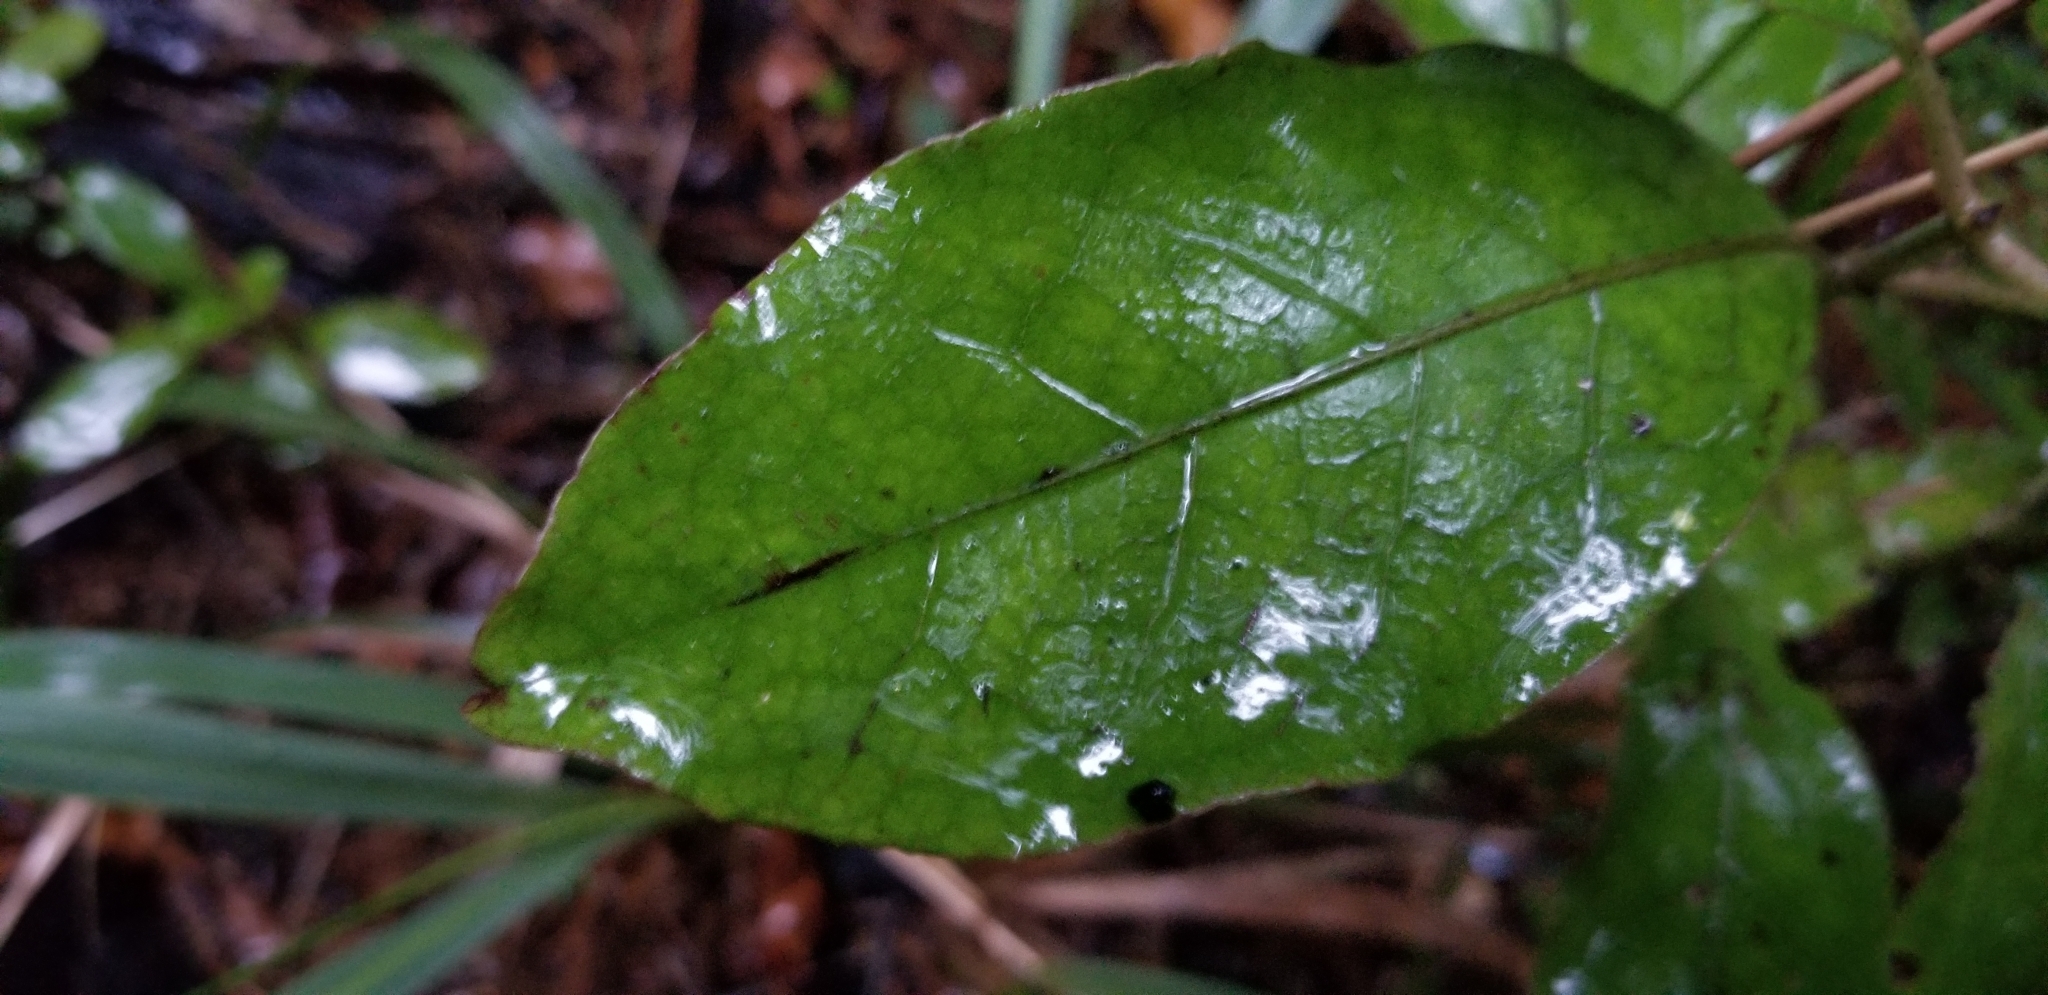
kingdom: Plantae
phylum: Tracheophyta
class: Magnoliopsida
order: Gentianales
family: Rubiaceae
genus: Coprosma
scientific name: Coprosma autumnalis
